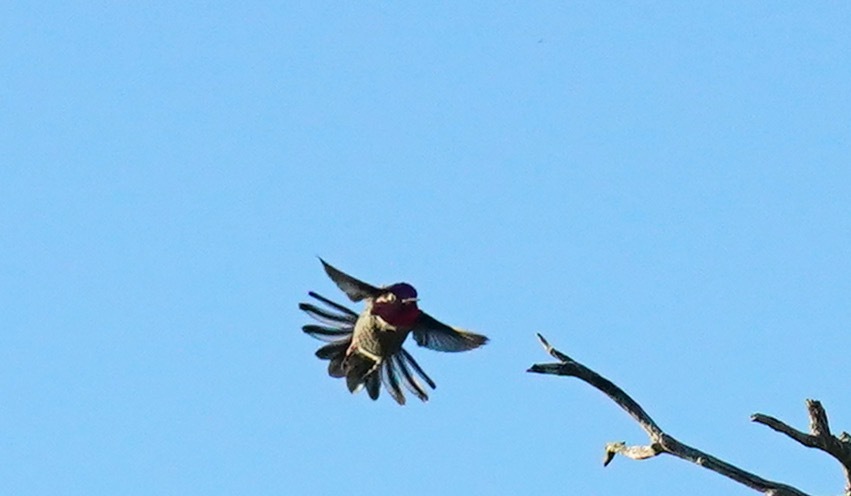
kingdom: Animalia
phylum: Chordata
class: Aves
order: Apodiformes
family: Trochilidae
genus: Calypte
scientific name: Calypte anna
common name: Anna's hummingbird
